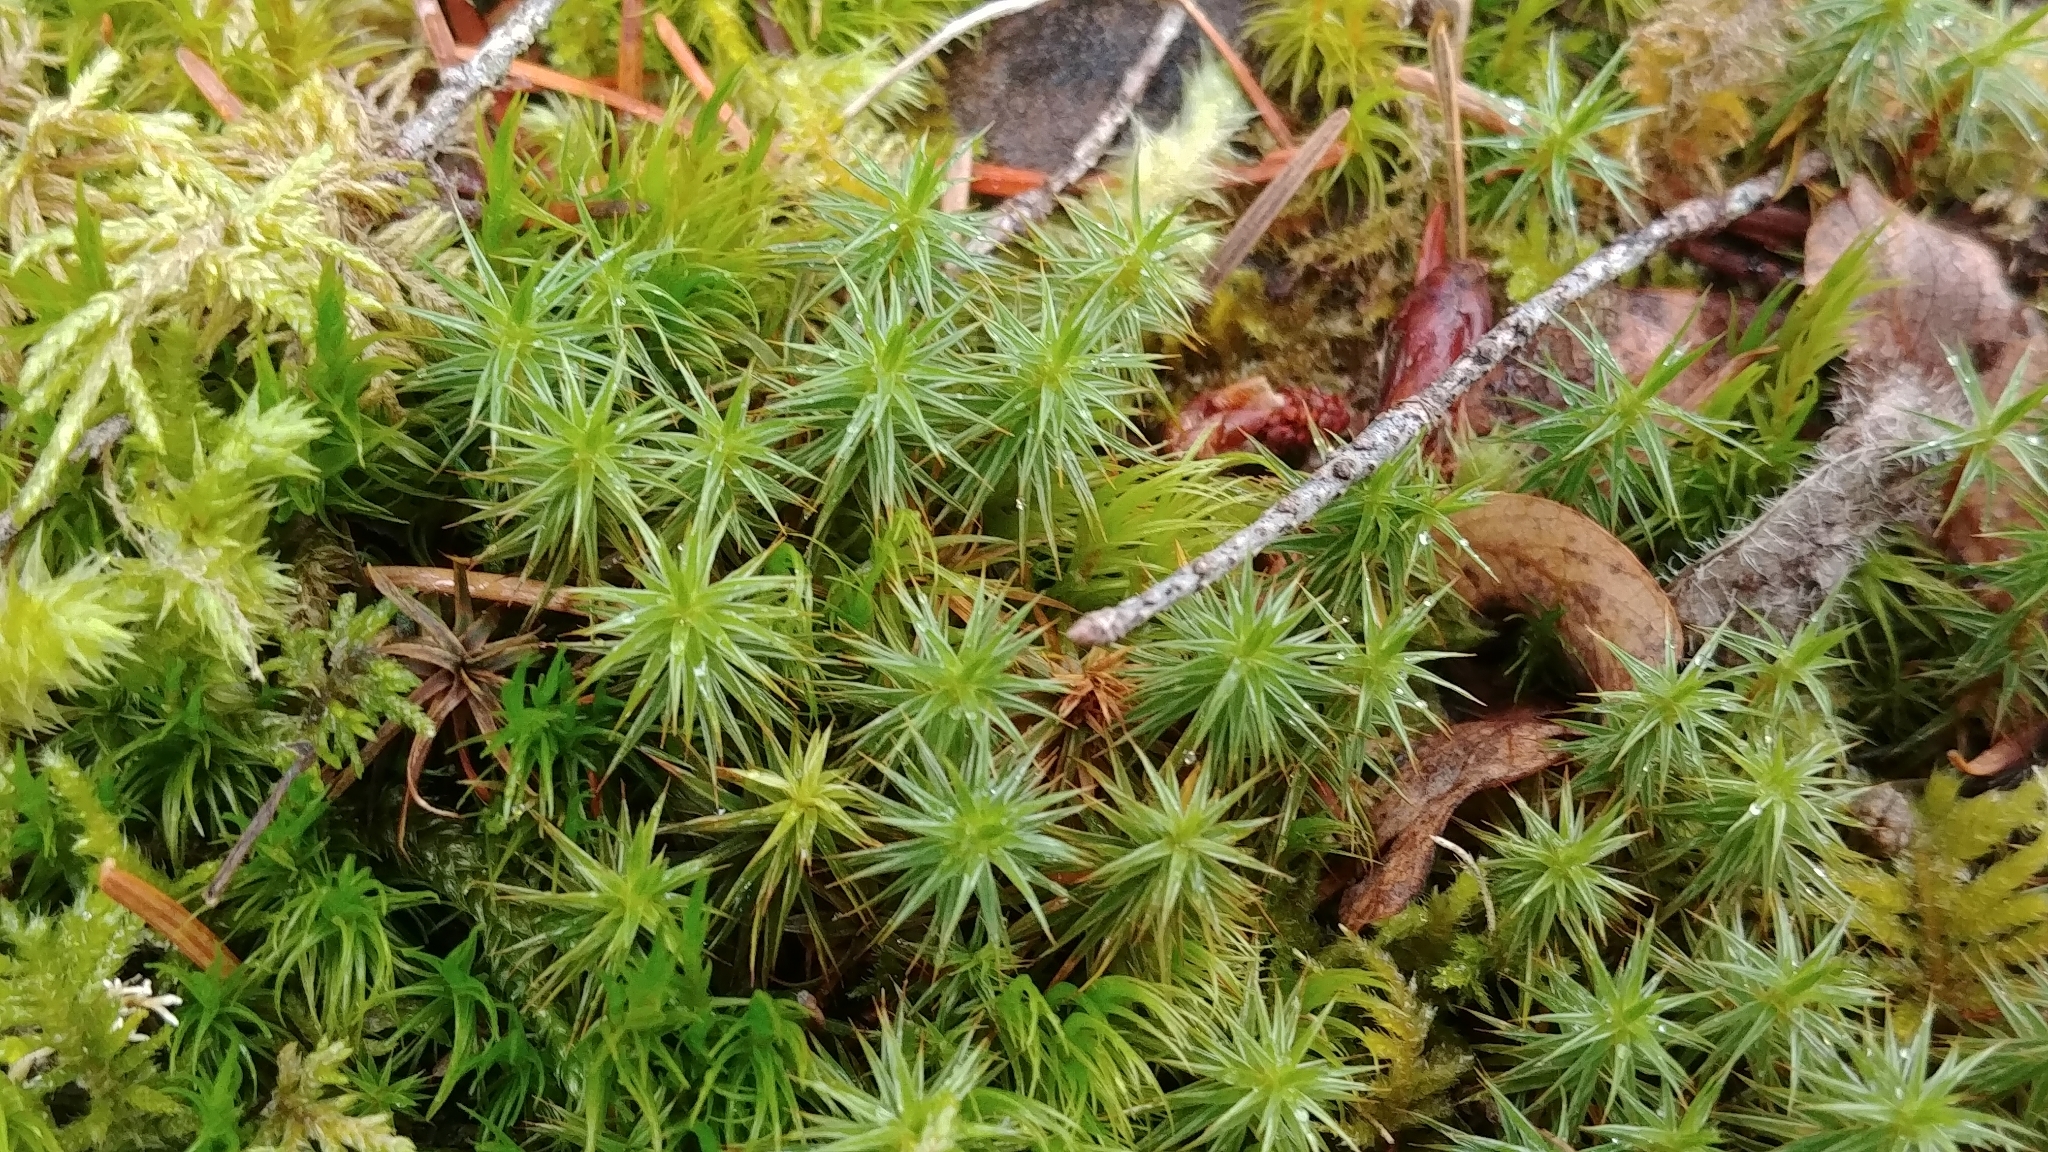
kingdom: Plantae
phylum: Bryophyta
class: Polytrichopsida
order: Polytrichales
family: Polytrichaceae
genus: Polytrichum
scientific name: Polytrichum juniperinum
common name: Juniper haircap moss
